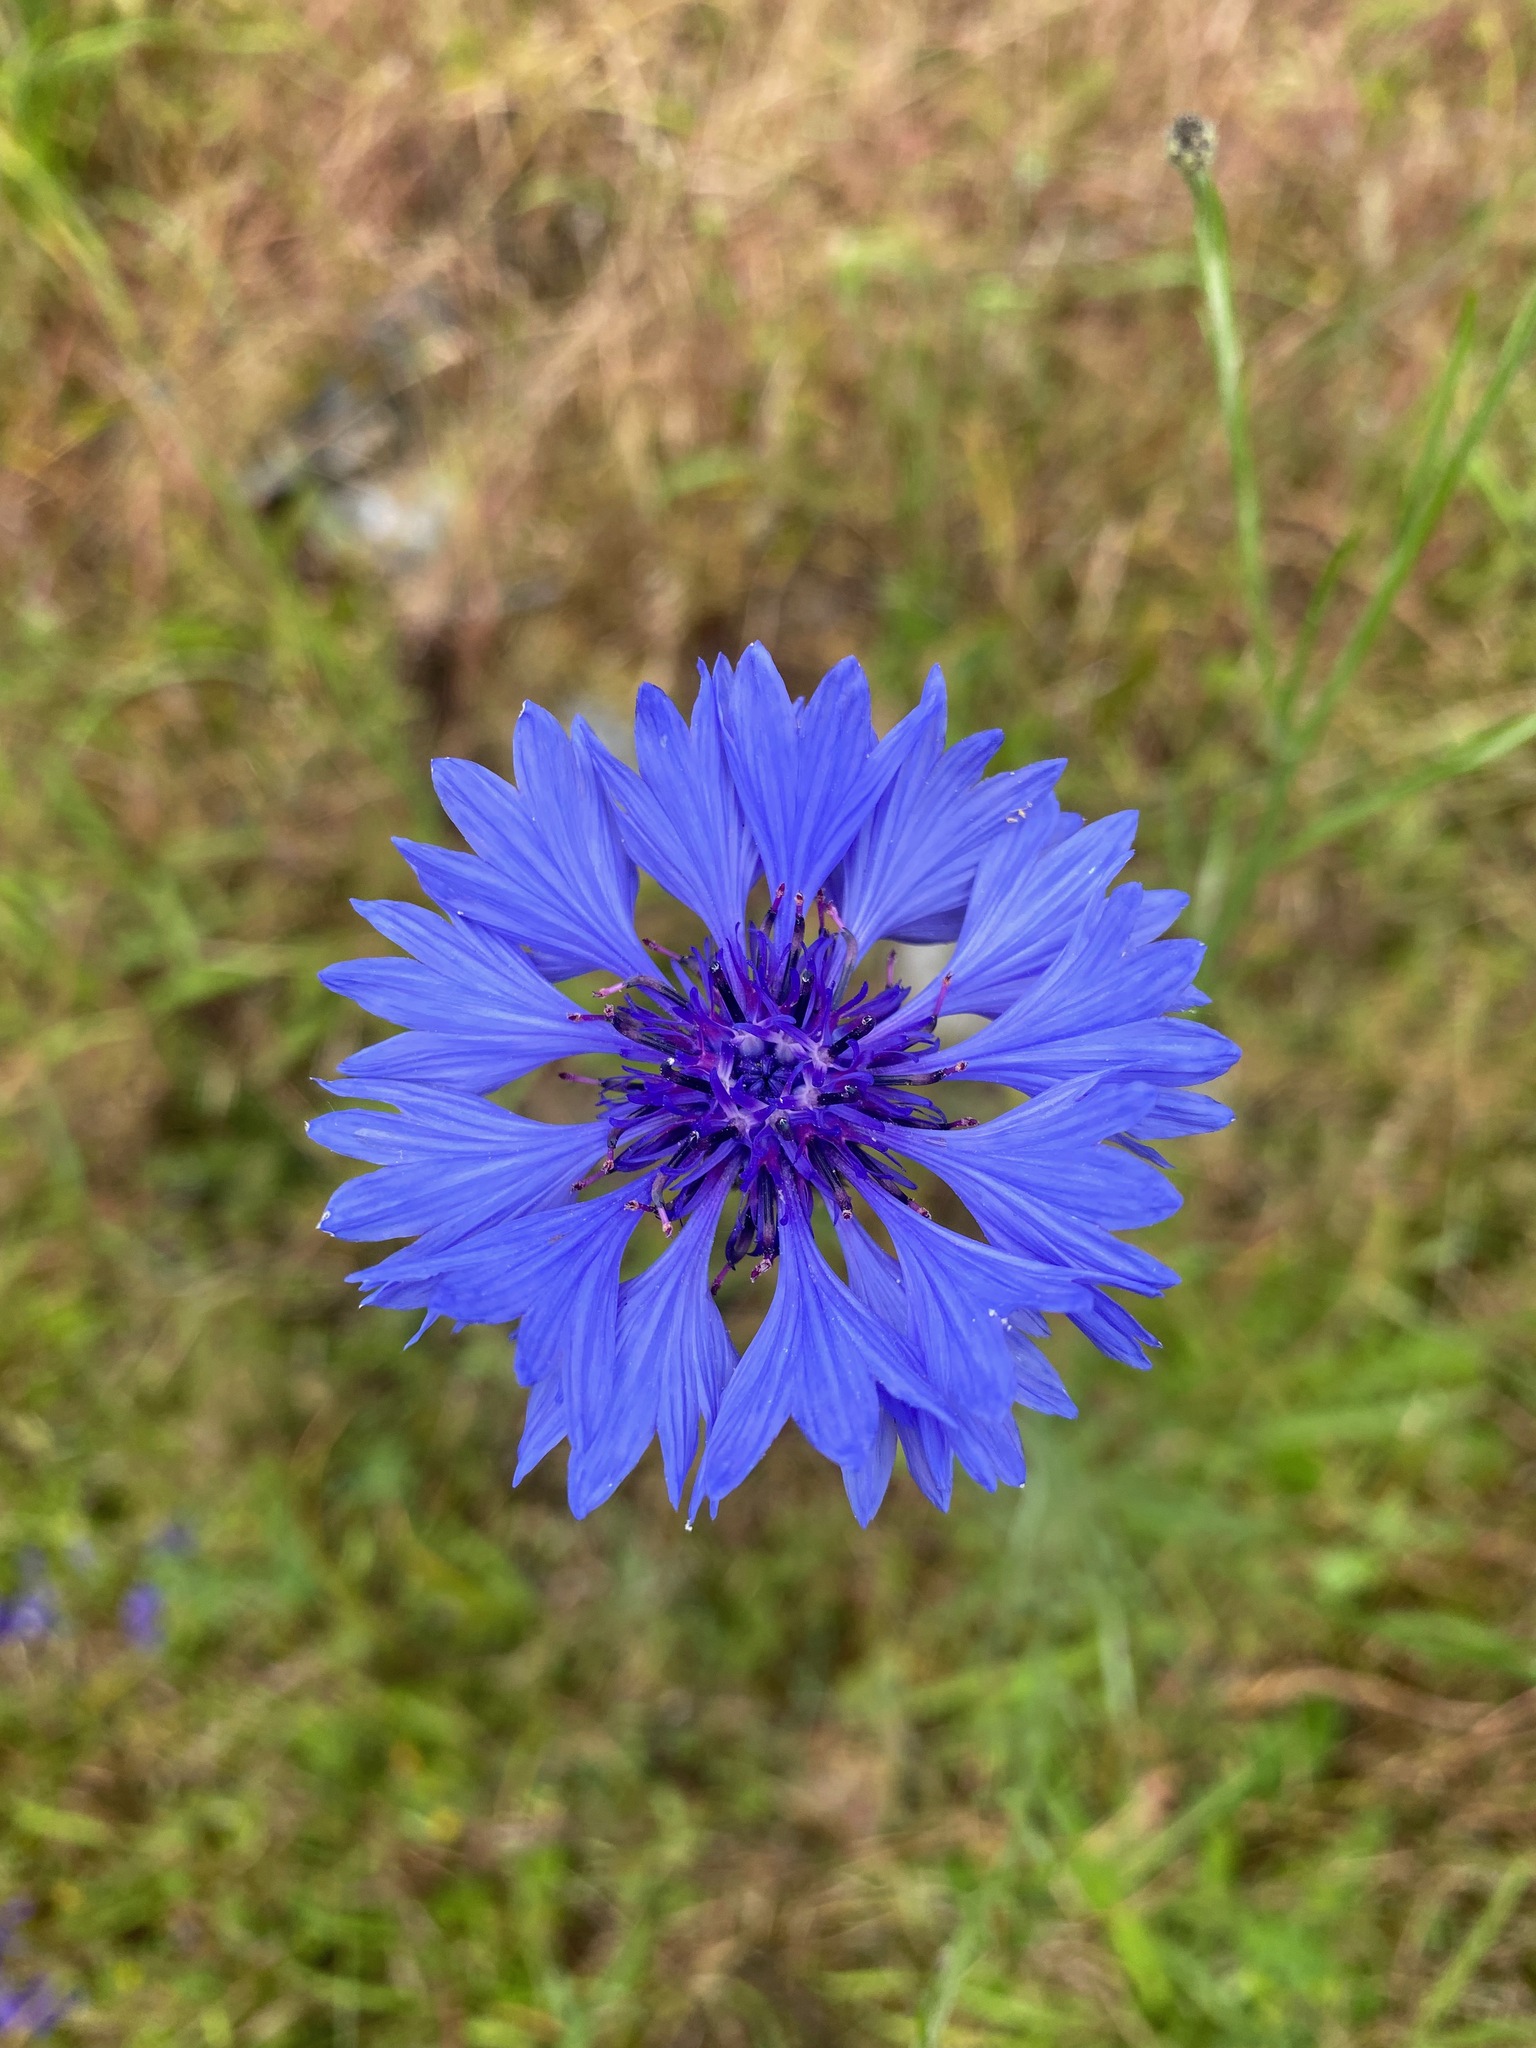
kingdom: Plantae
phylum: Tracheophyta
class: Magnoliopsida
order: Asterales
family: Asteraceae
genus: Centaurea
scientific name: Centaurea cyanus
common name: Cornflower
